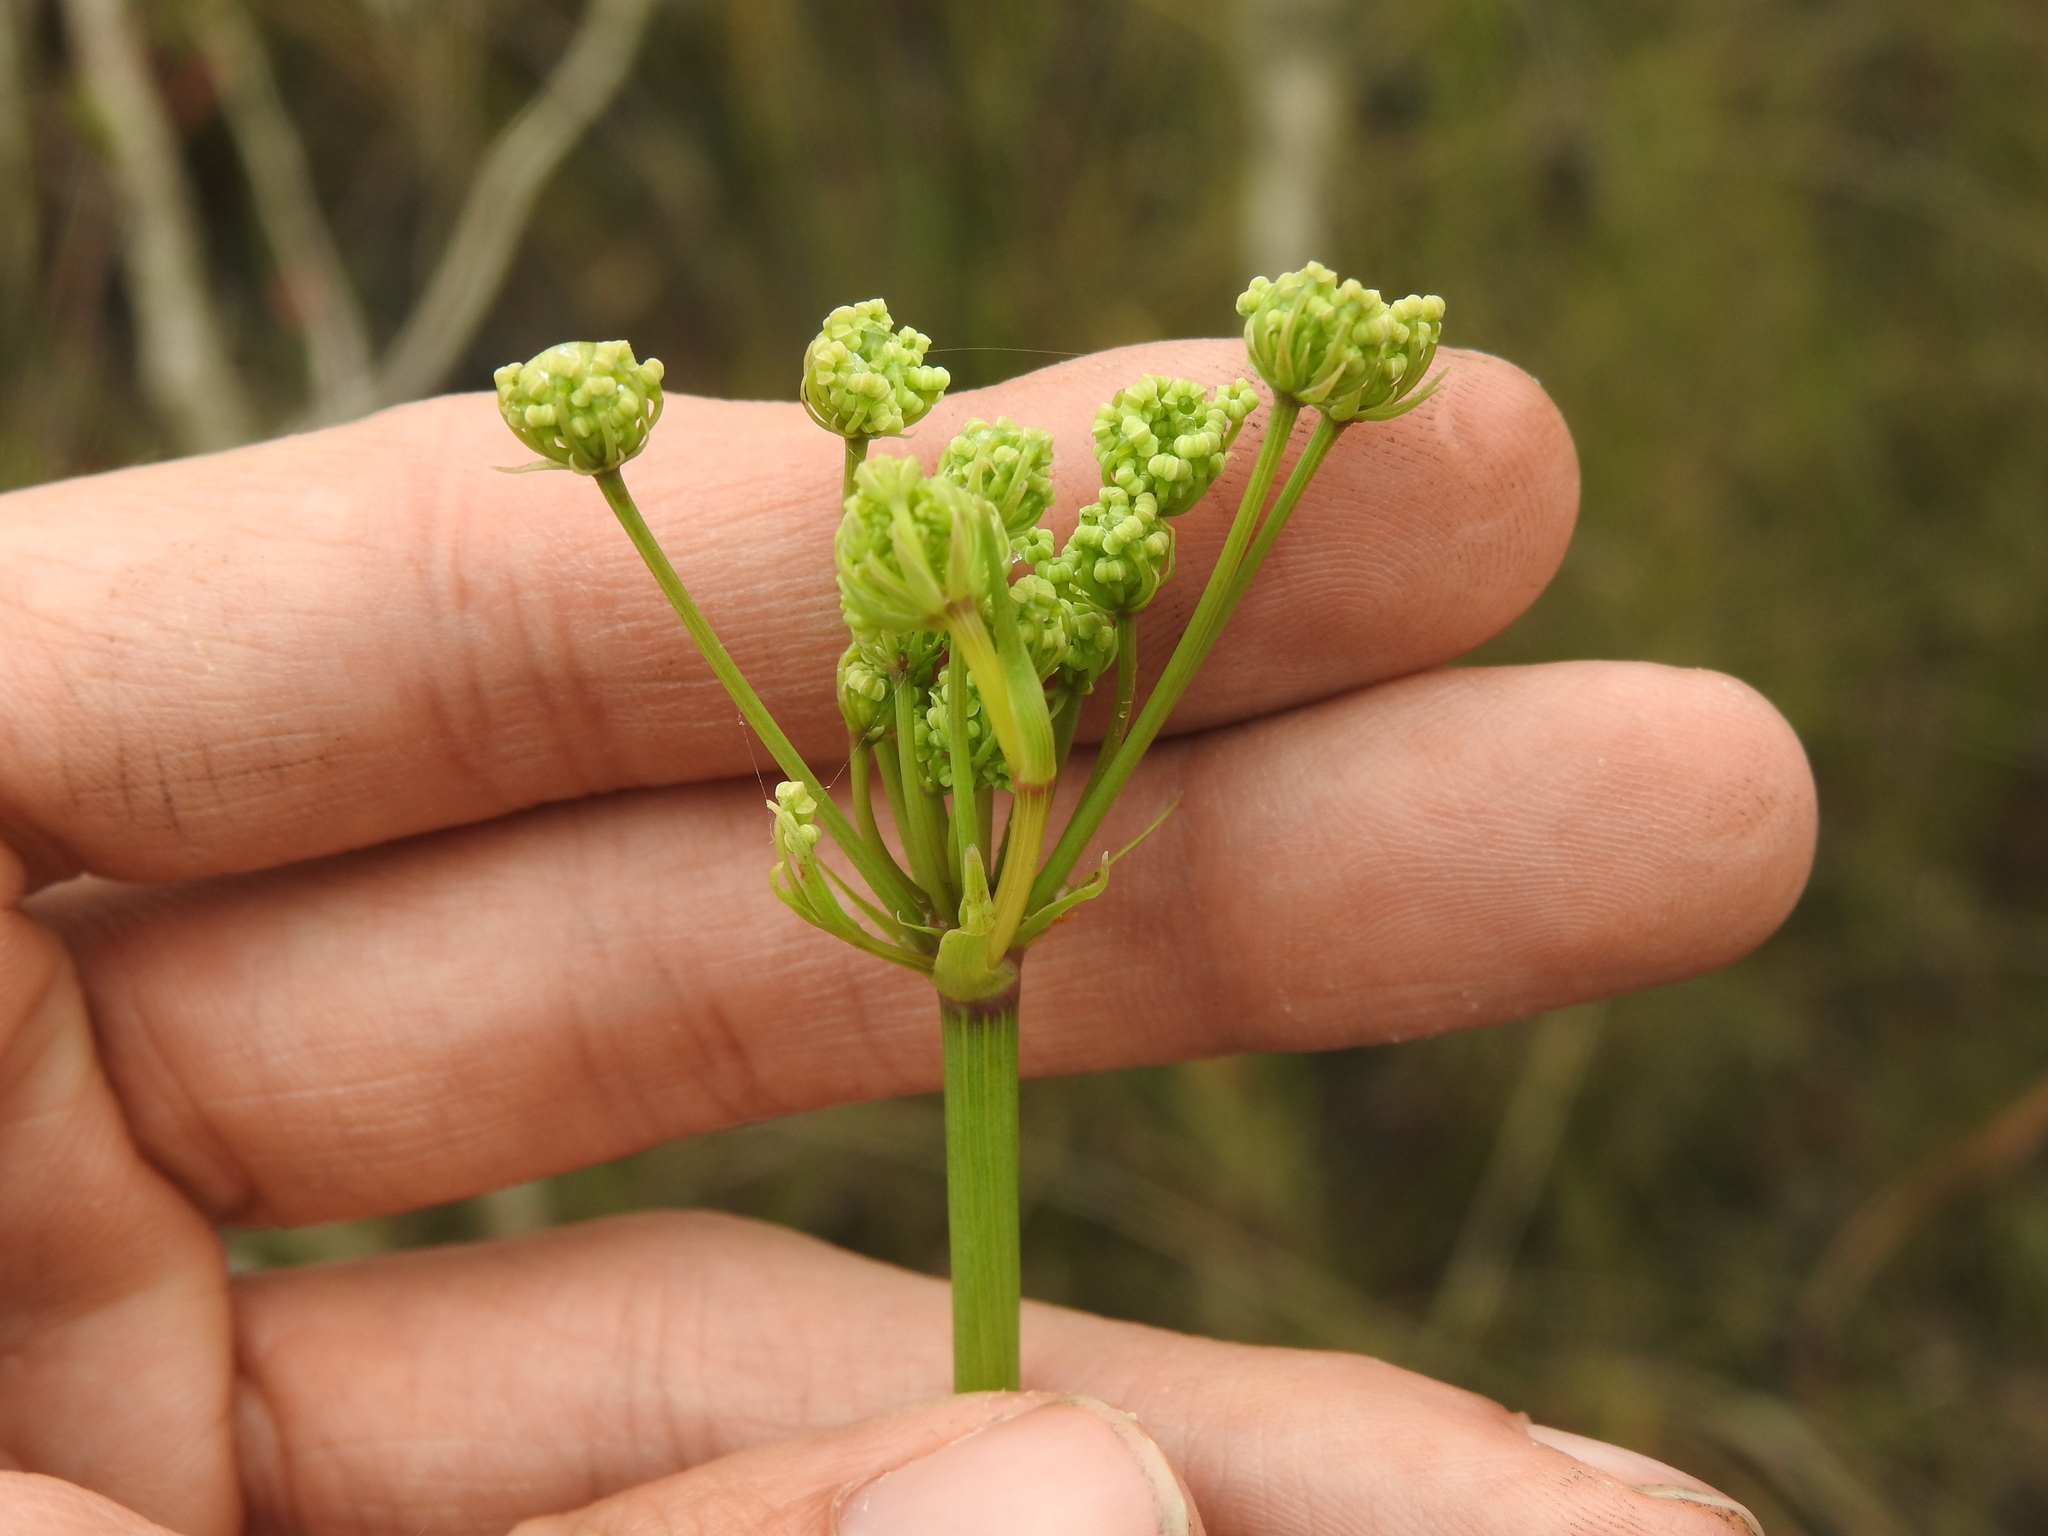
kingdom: Plantae
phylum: Tracheophyta
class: Magnoliopsida
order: Apiales
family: Apiaceae
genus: Tiedemannia
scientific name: Tiedemannia filiformis
